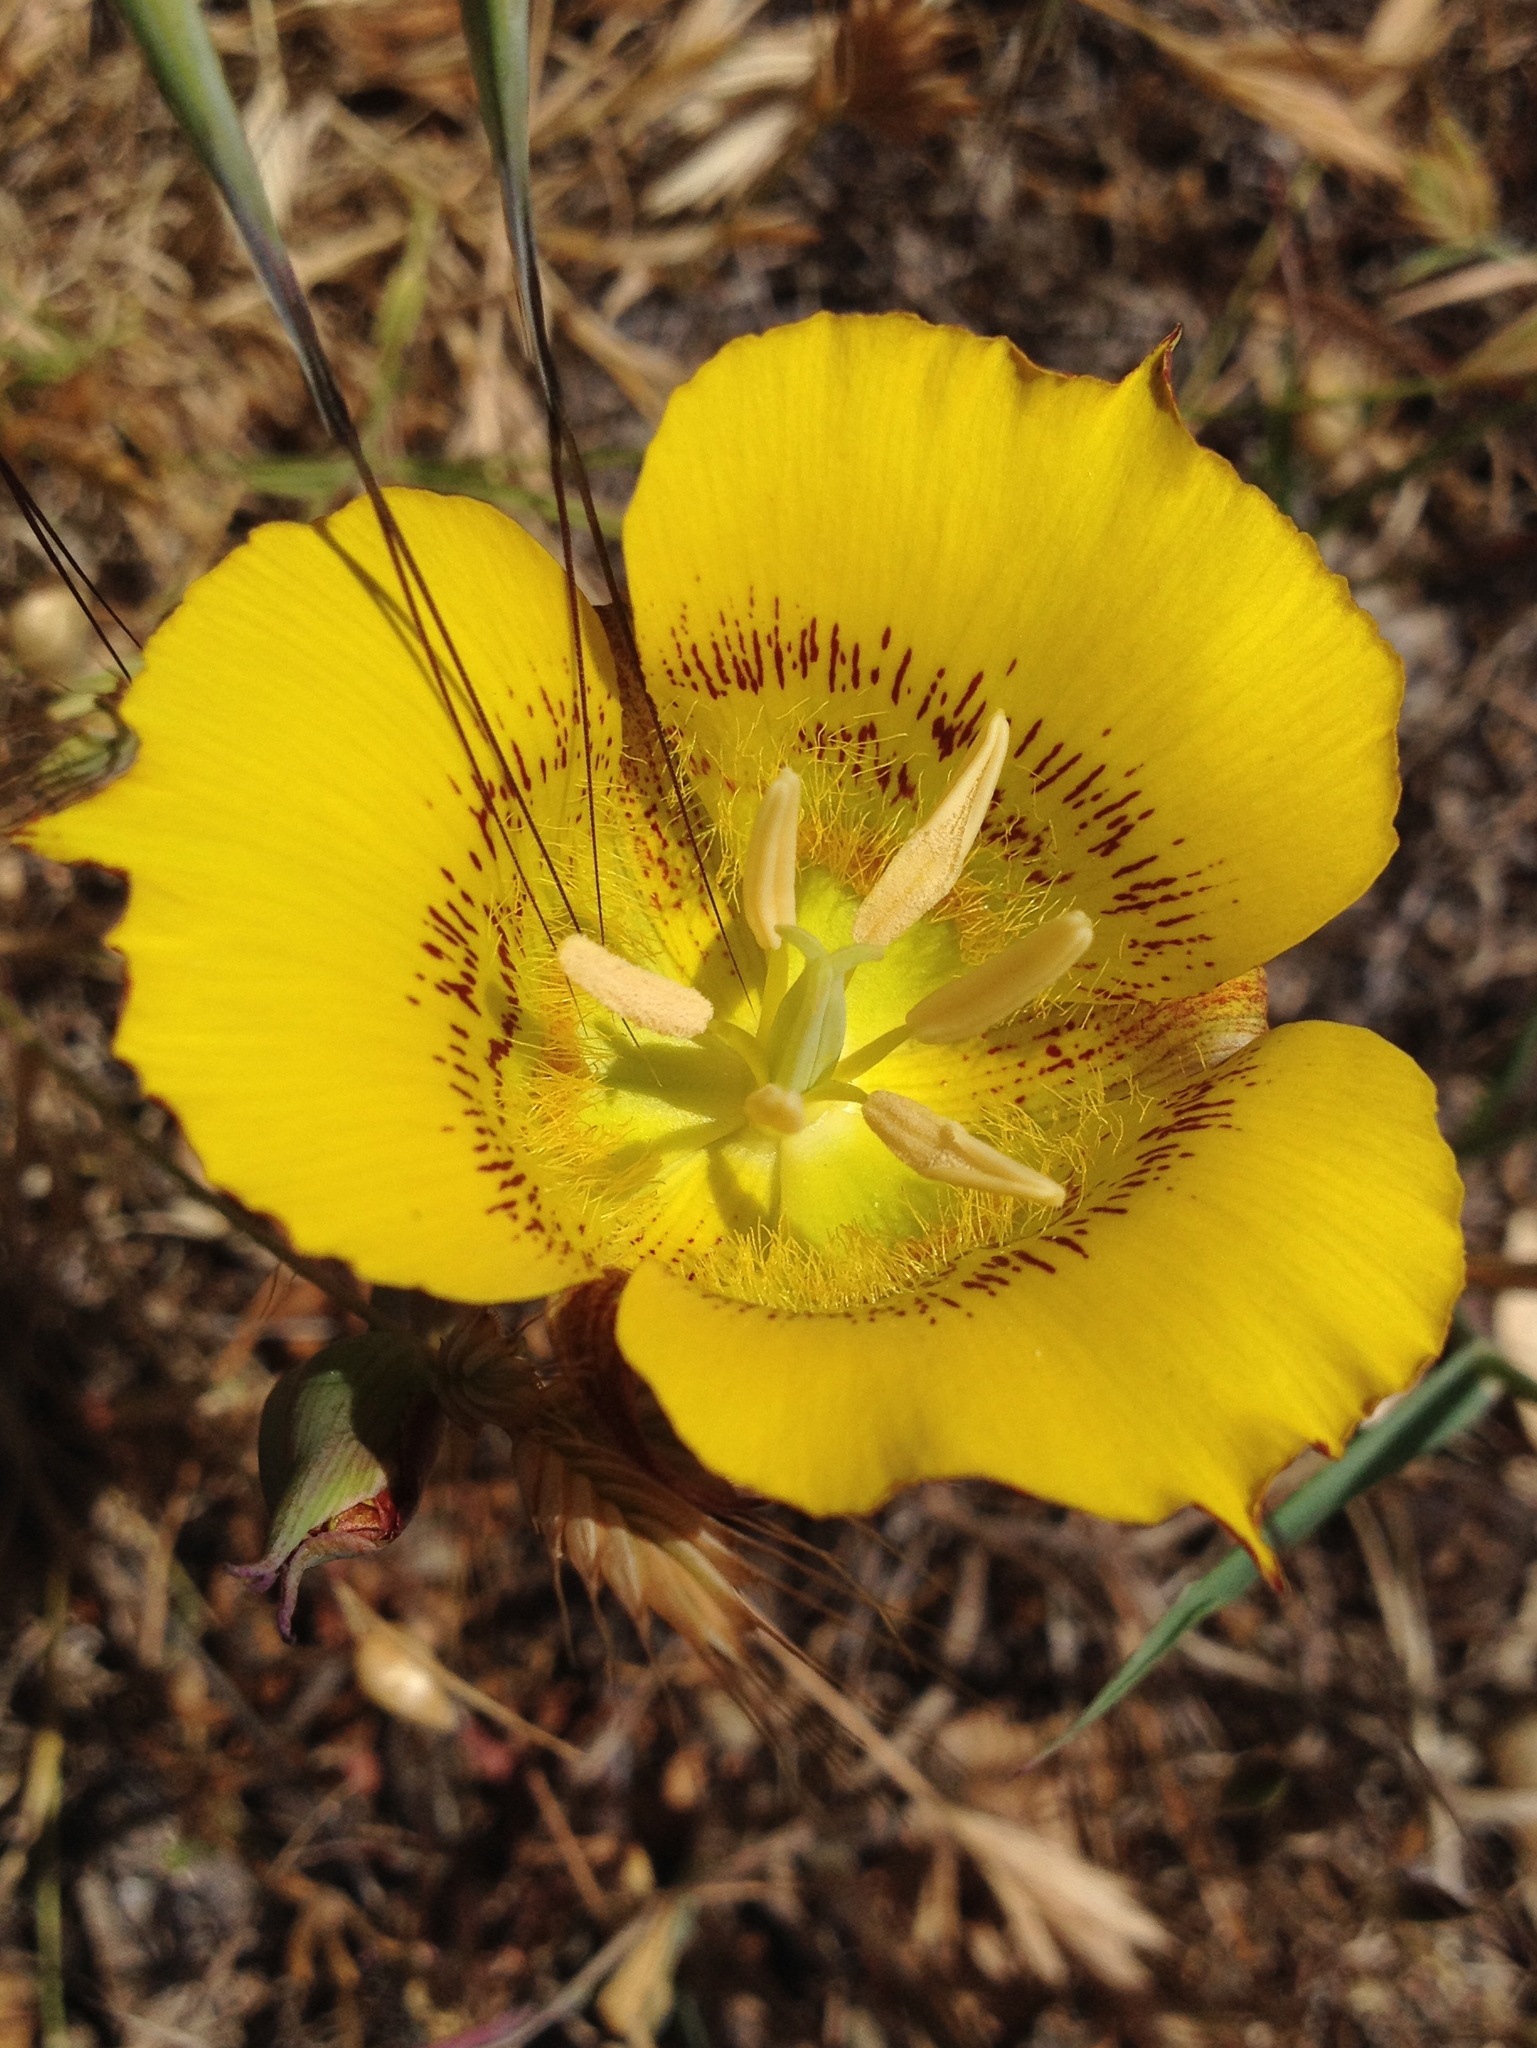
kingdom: Plantae
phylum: Tracheophyta
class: Liliopsida
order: Liliales
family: Liliaceae
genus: Calochortus
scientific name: Calochortus luteus
